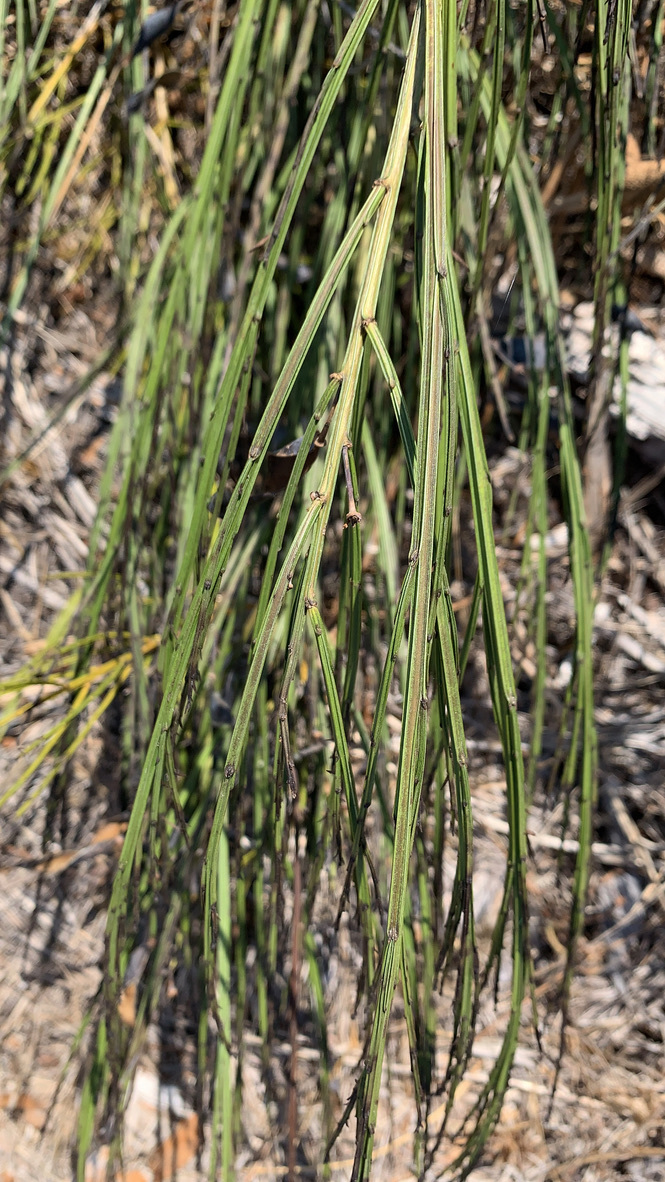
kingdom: Plantae
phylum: Tracheophyta
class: Magnoliopsida
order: Fabales
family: Fabaceae
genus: Cytisus
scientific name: Cytisus scoparius
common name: Scotch broom
